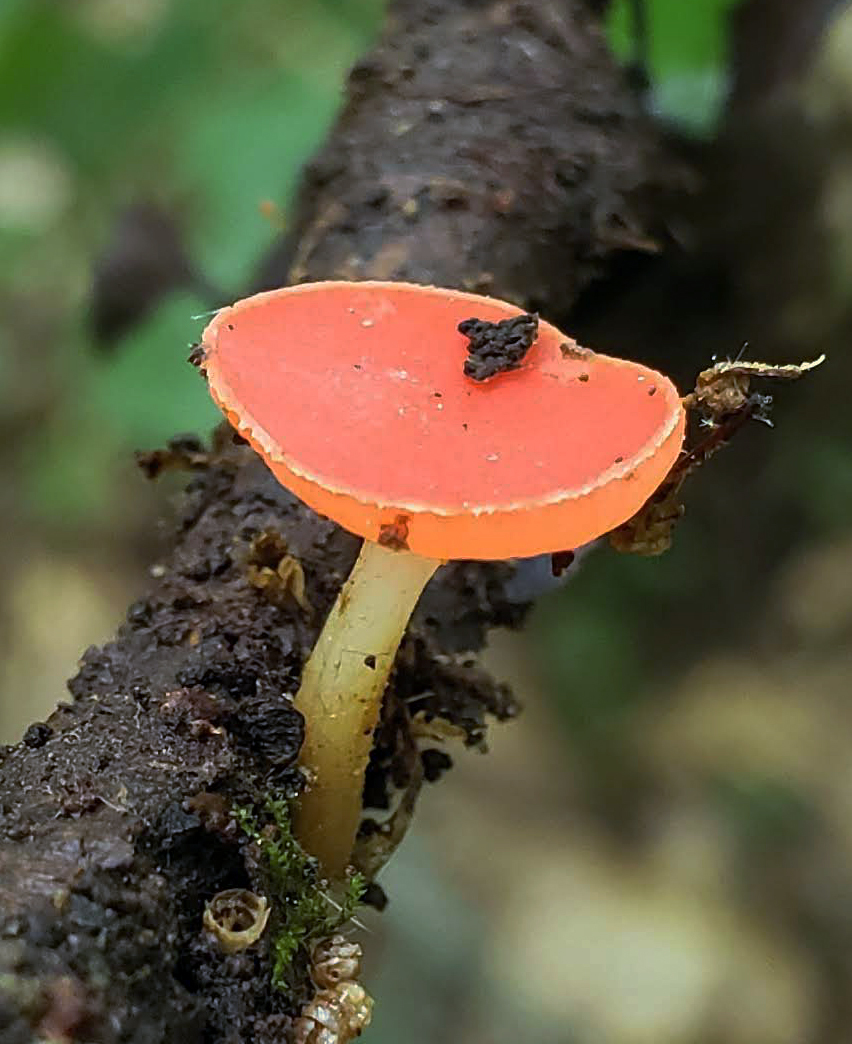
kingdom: Fungi
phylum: Ascomycota
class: Pezizomycetes
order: Pezizales
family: Sarcoscyphaceae
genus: Sarcoscypha
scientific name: Sarcoscypha occidentalis
